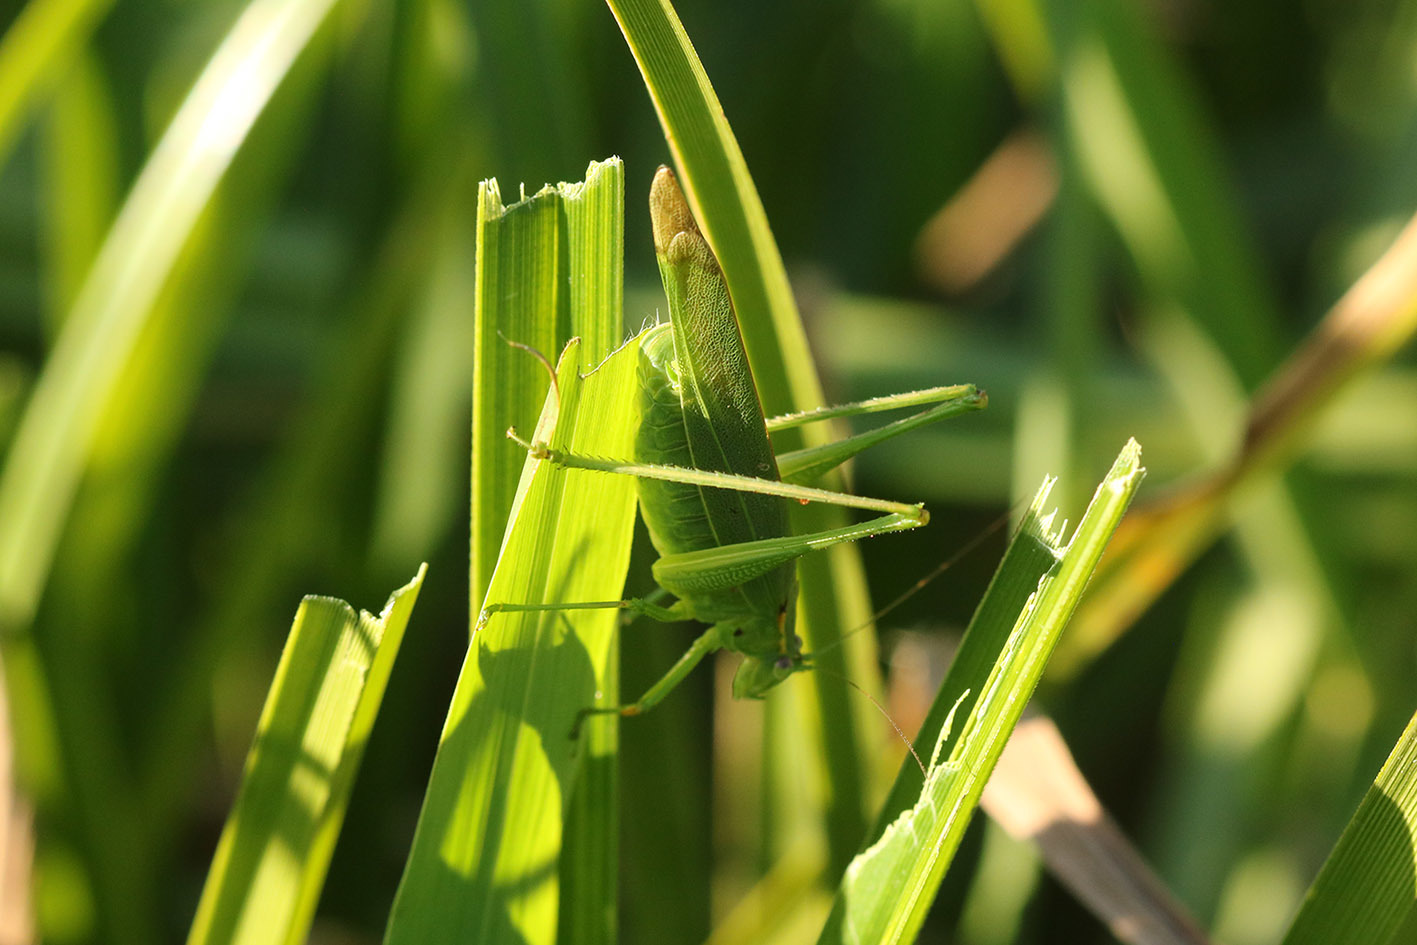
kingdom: Animalia
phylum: Arthropoda
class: Insecta
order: Orthoptera
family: Tettigoniidae
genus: Ligocatinus
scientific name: Ligocatinus spinatus
